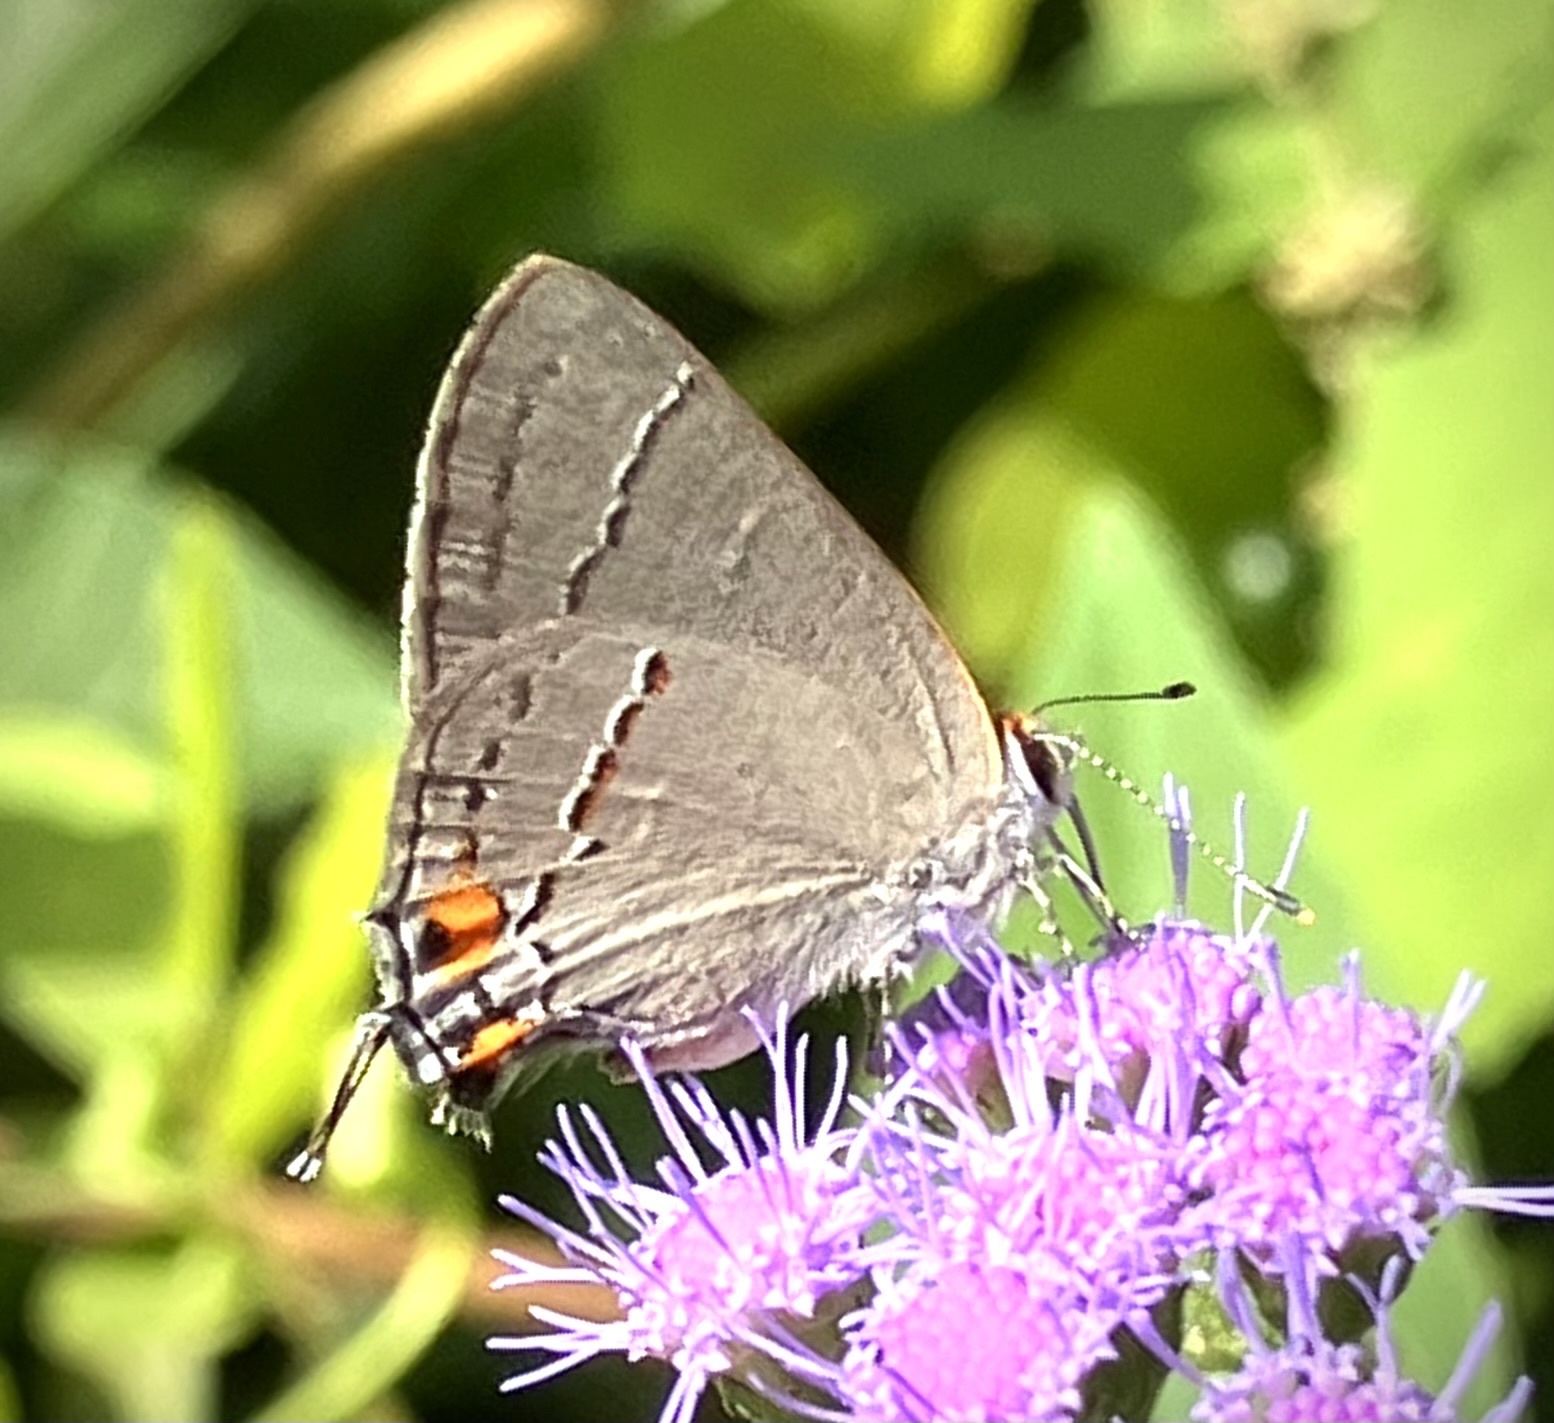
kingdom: Animalia
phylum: Arthropoda
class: Insecta
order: Lepidoptera
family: Lycaenidae
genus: Strymon
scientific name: Strymon melinus
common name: Gray hairstreak
